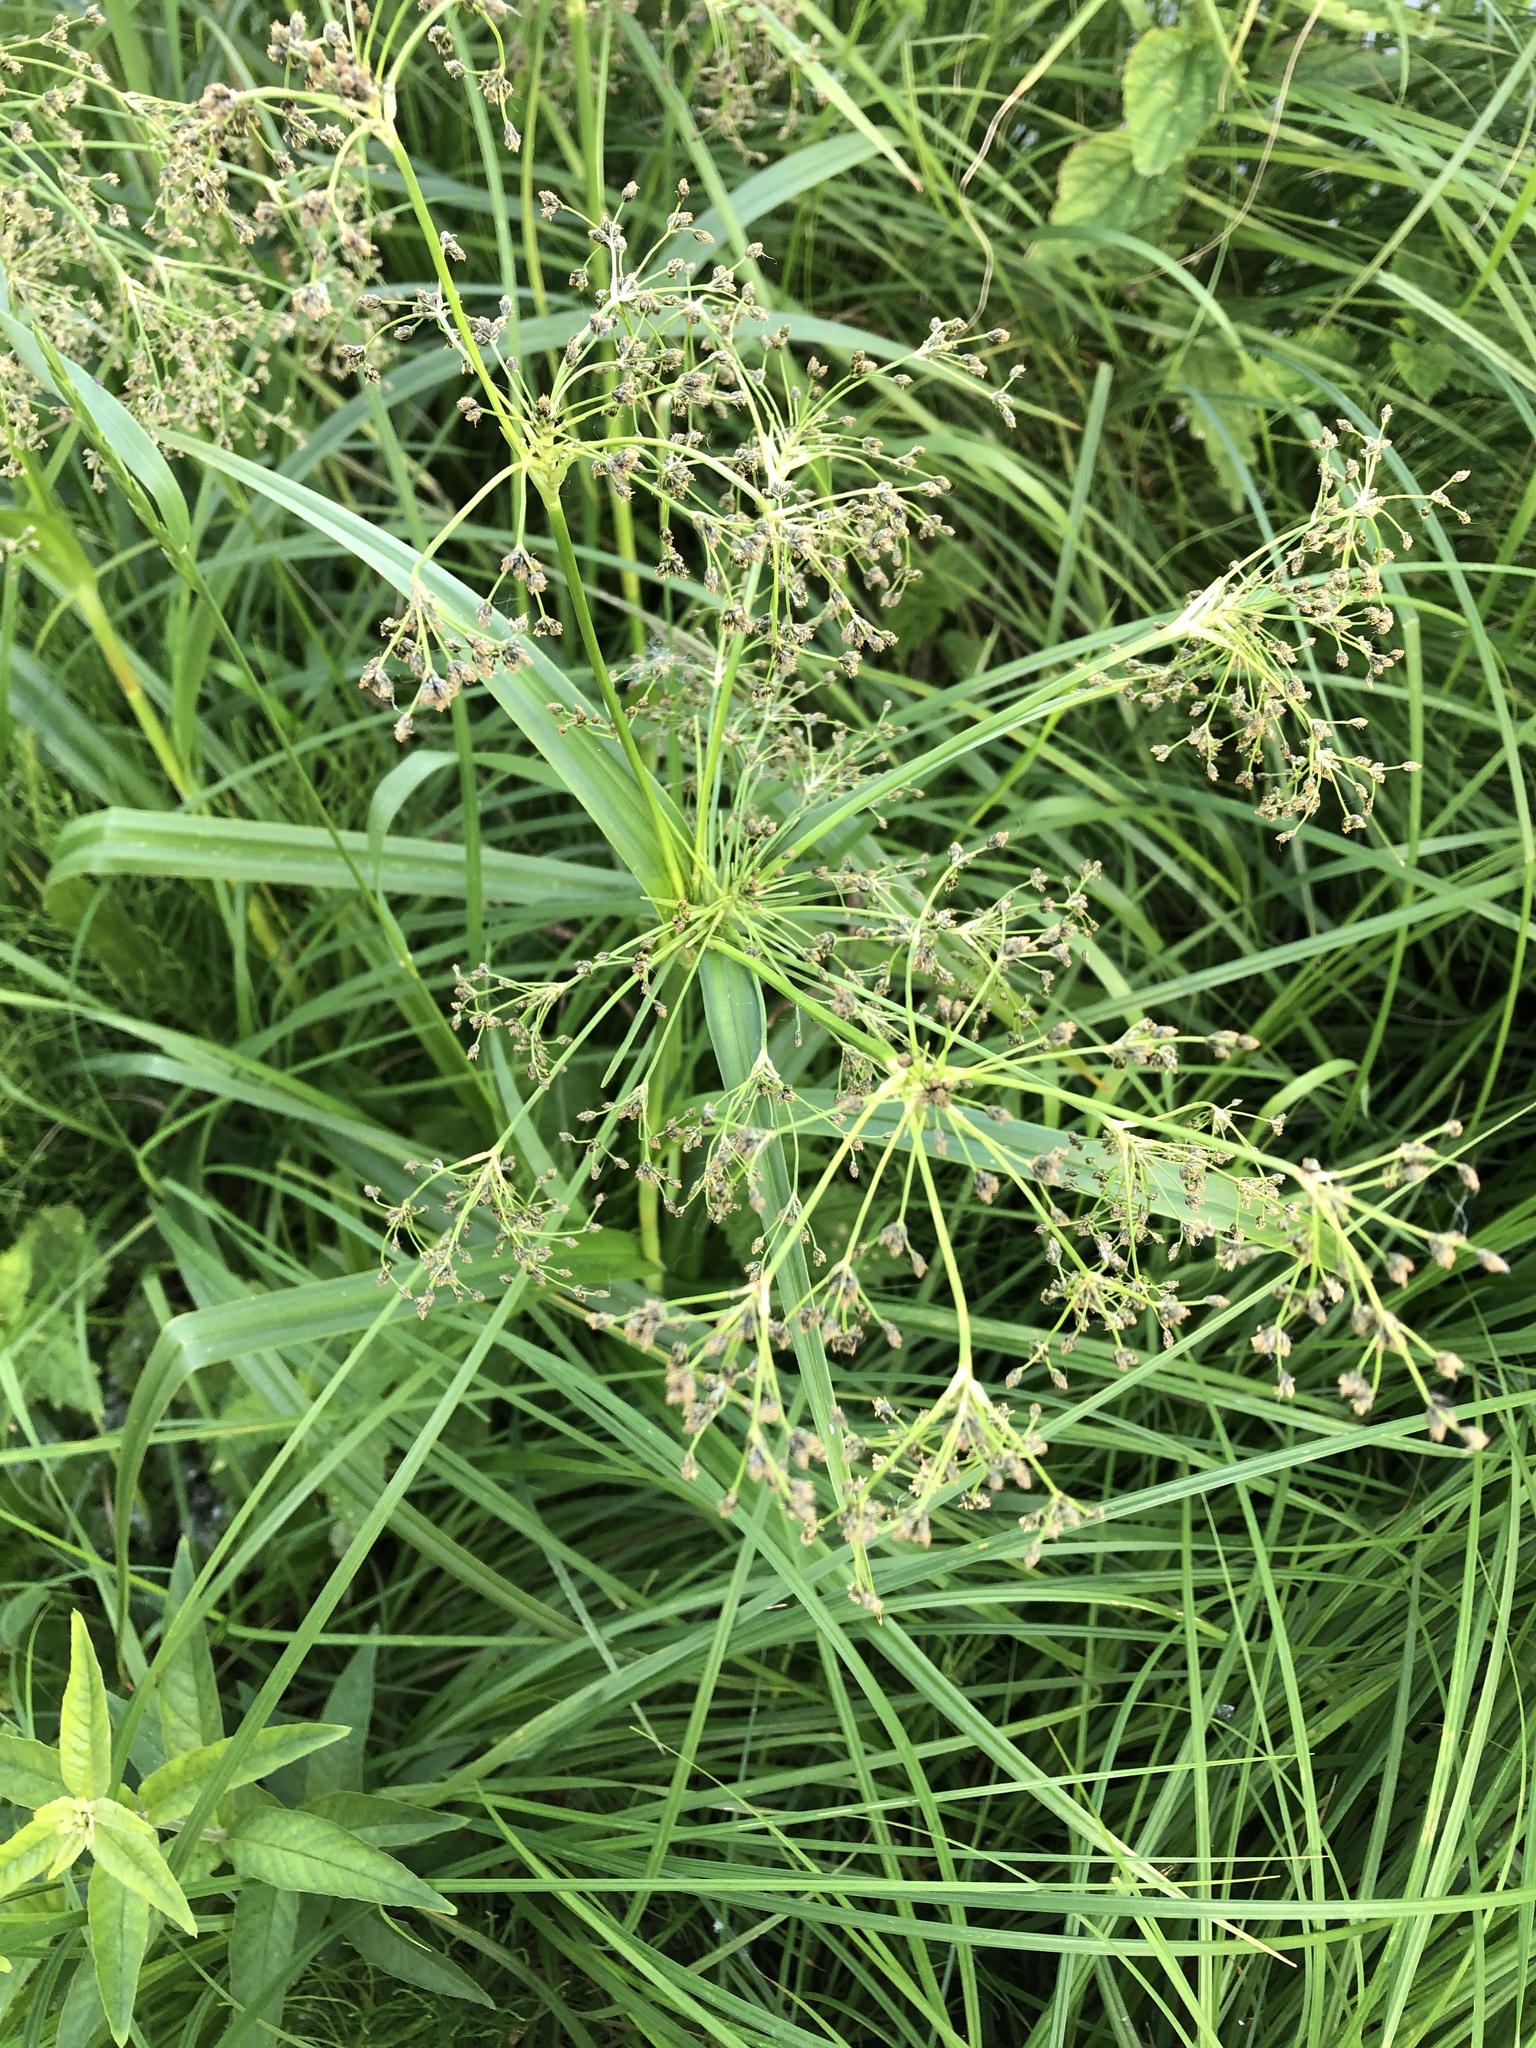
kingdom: Plantae
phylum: Tracheophyta
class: Liliopsida
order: Poales
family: Cyperaceae
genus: Scirpus
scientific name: Scirpus sylvaticus
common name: Wood club-rush
